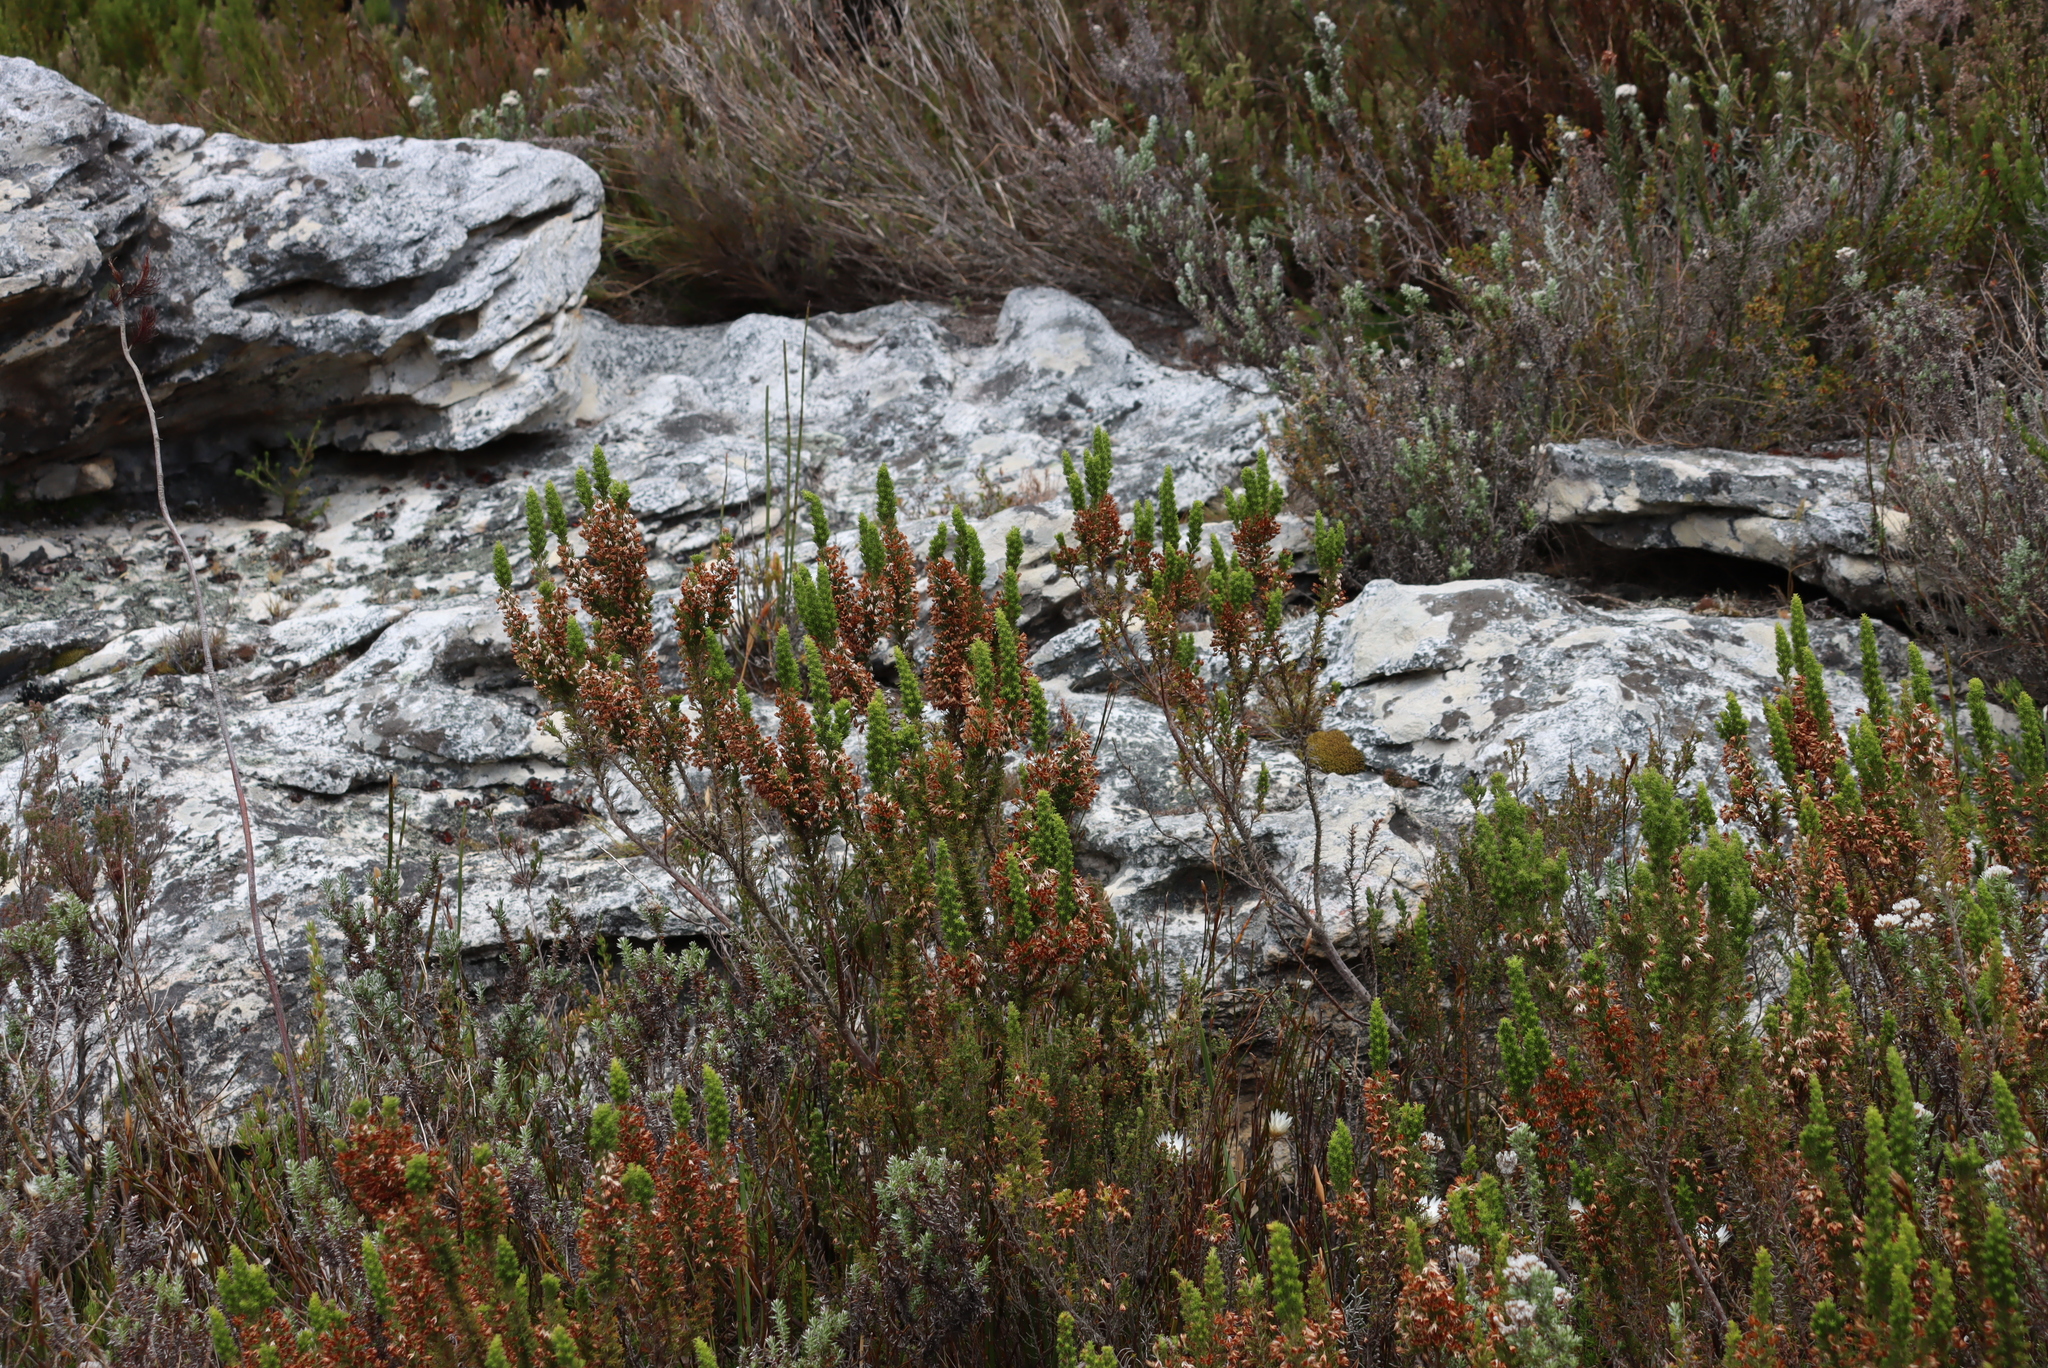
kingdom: Plantae
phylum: Tracheophyta
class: Magnoliopsida
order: Ericales
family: Ericaceae
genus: Erica
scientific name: Erica penicilliformis
